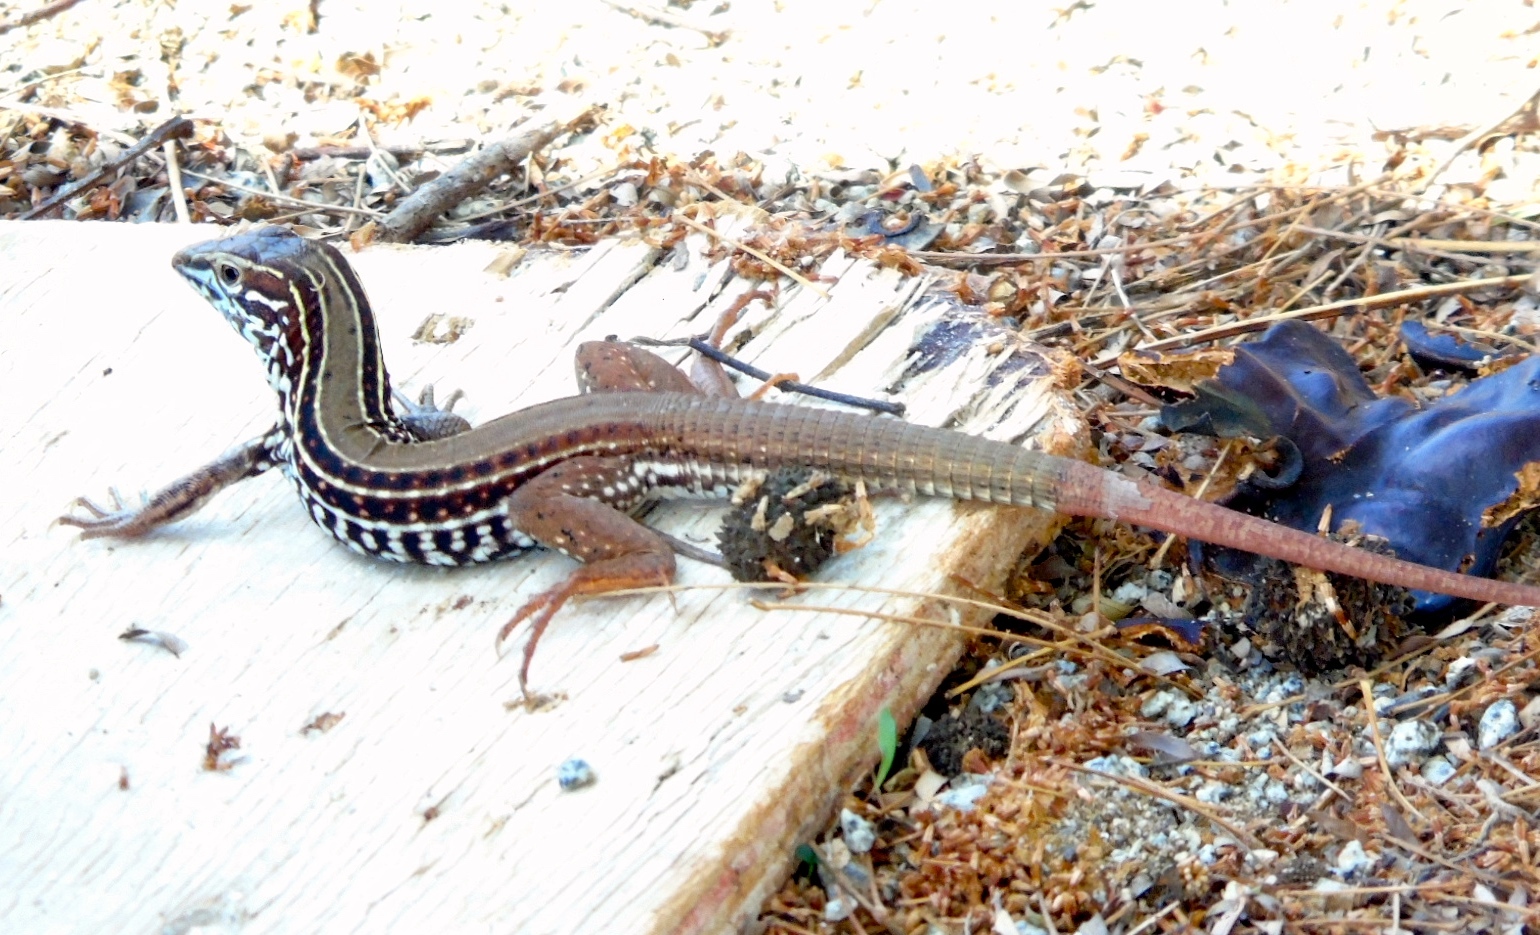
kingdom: Animalia
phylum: Chordata
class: Squamata
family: Teiidae
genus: Aspidoscelis
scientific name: Aspidoscelis costatus
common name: Western mexico whiptail
